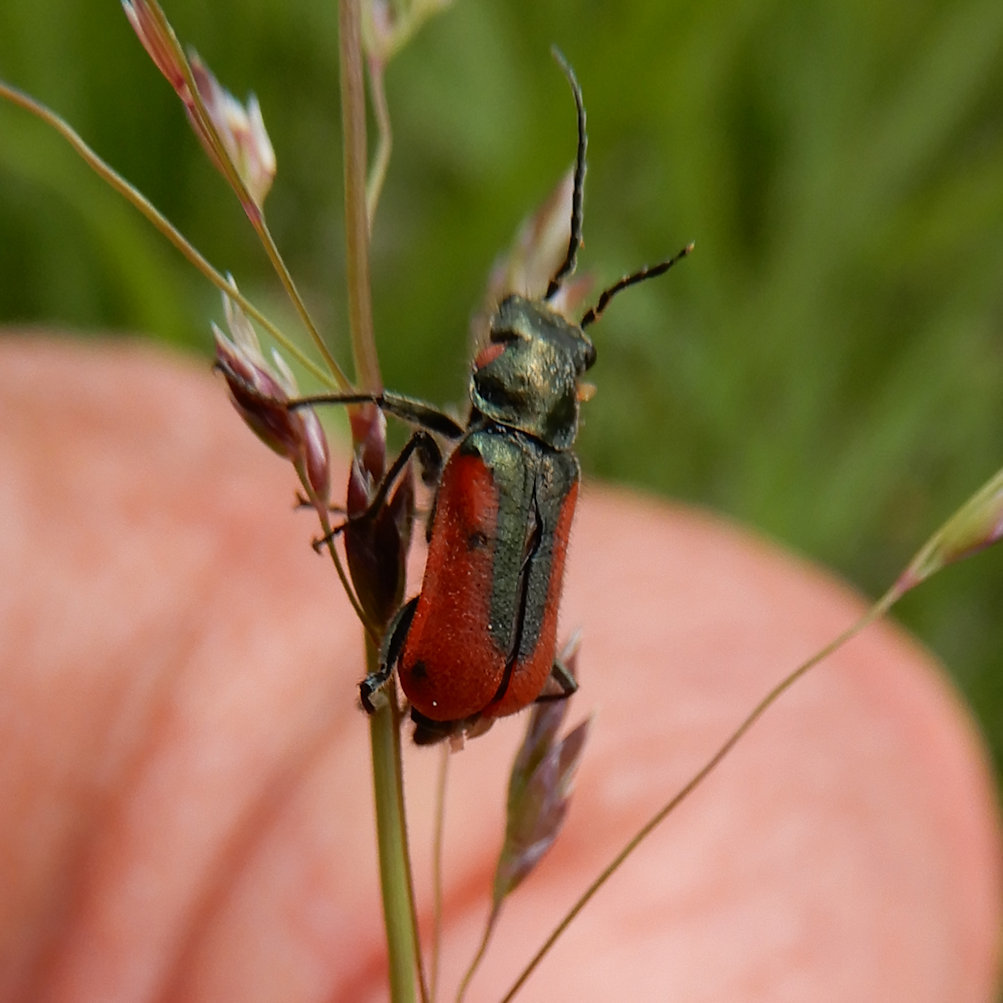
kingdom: Animalia
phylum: Arthropoda
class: Insecta
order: Coleoptera
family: Melyridae
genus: Malachius
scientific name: Malachius aeneus
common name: Scarlet malachite beetle
